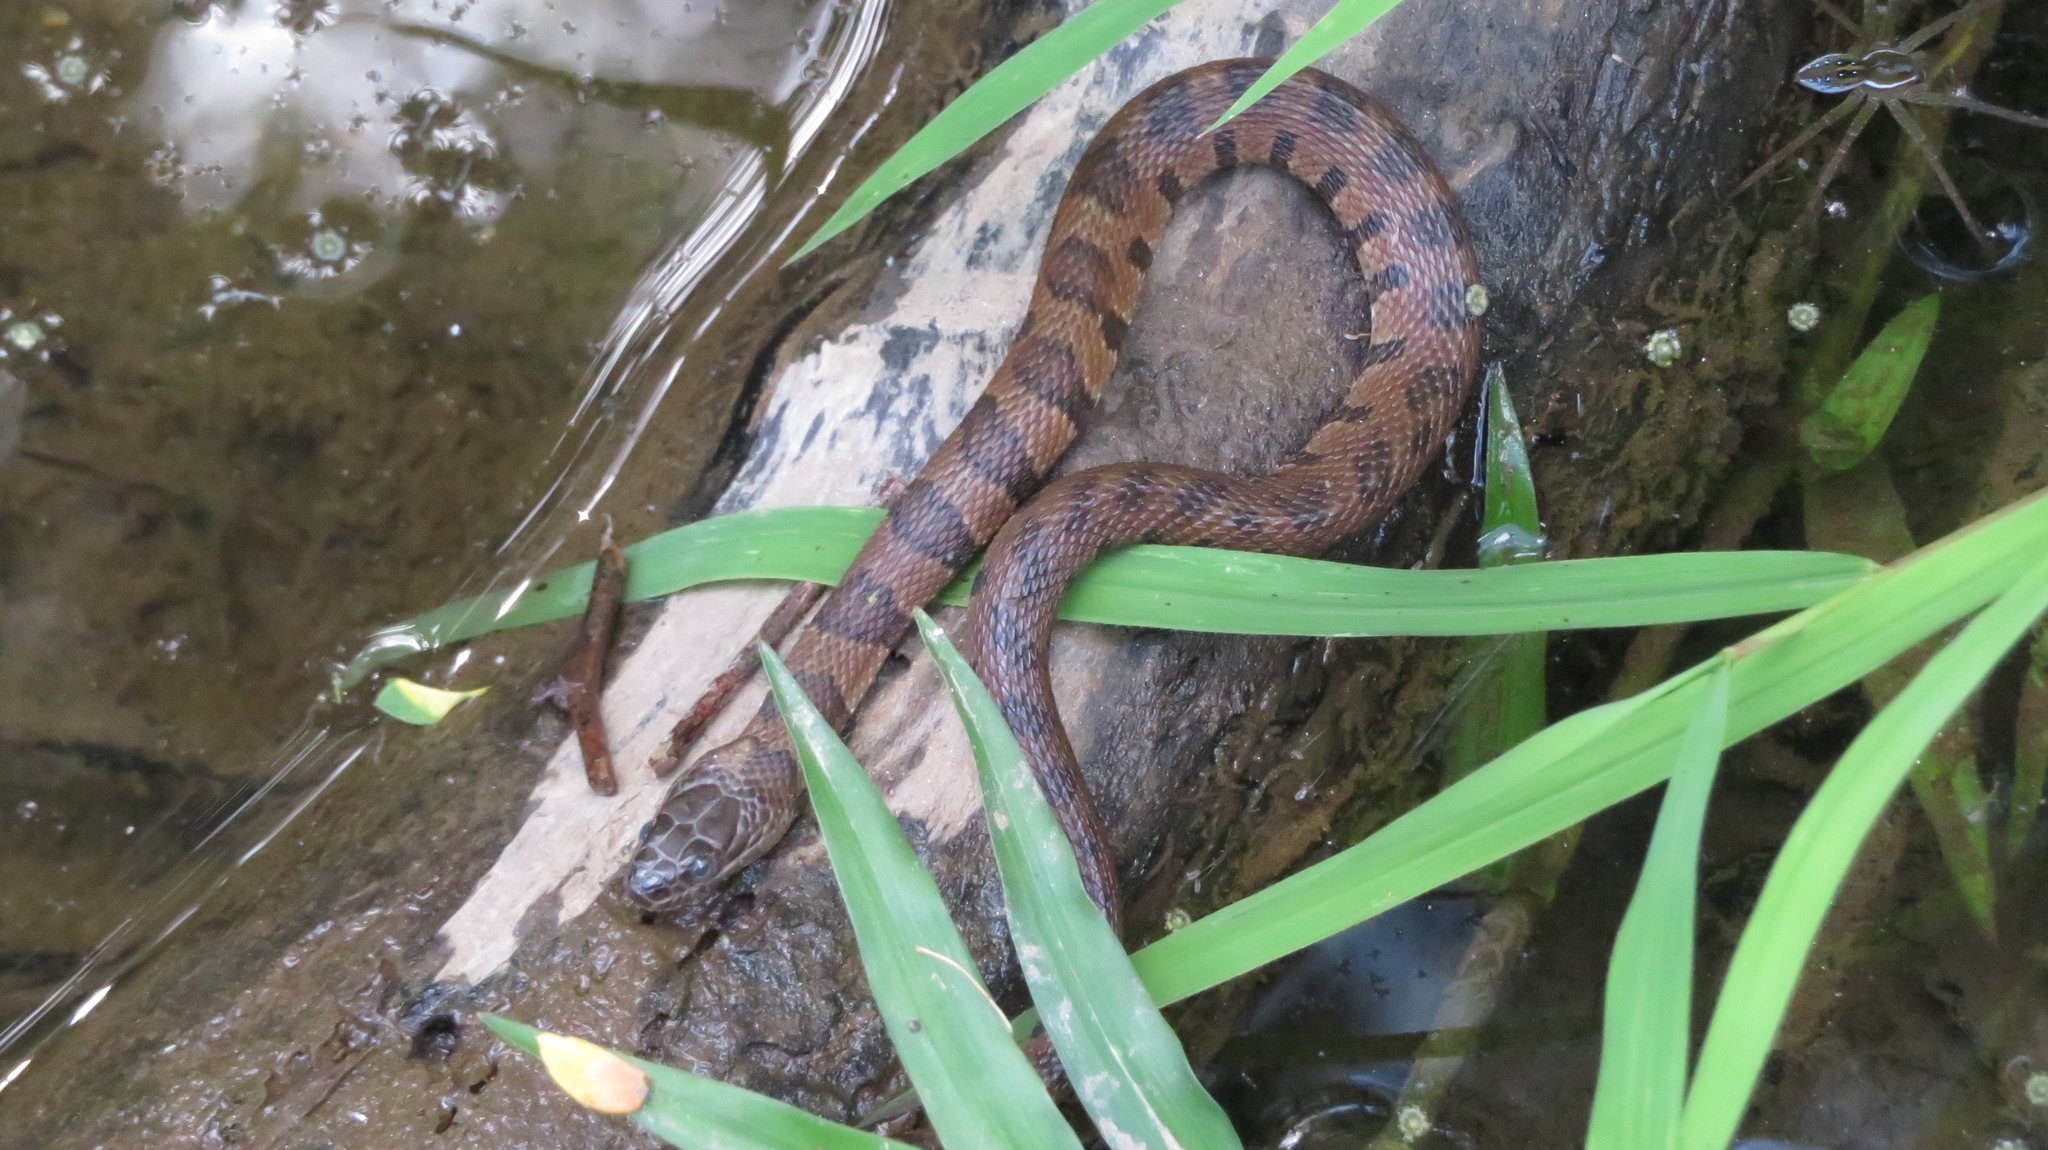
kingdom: Animalia
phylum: Chordata
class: Squamata
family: Colubridae
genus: Nerodia
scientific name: Nerodia sipedon
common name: Northern water snake
